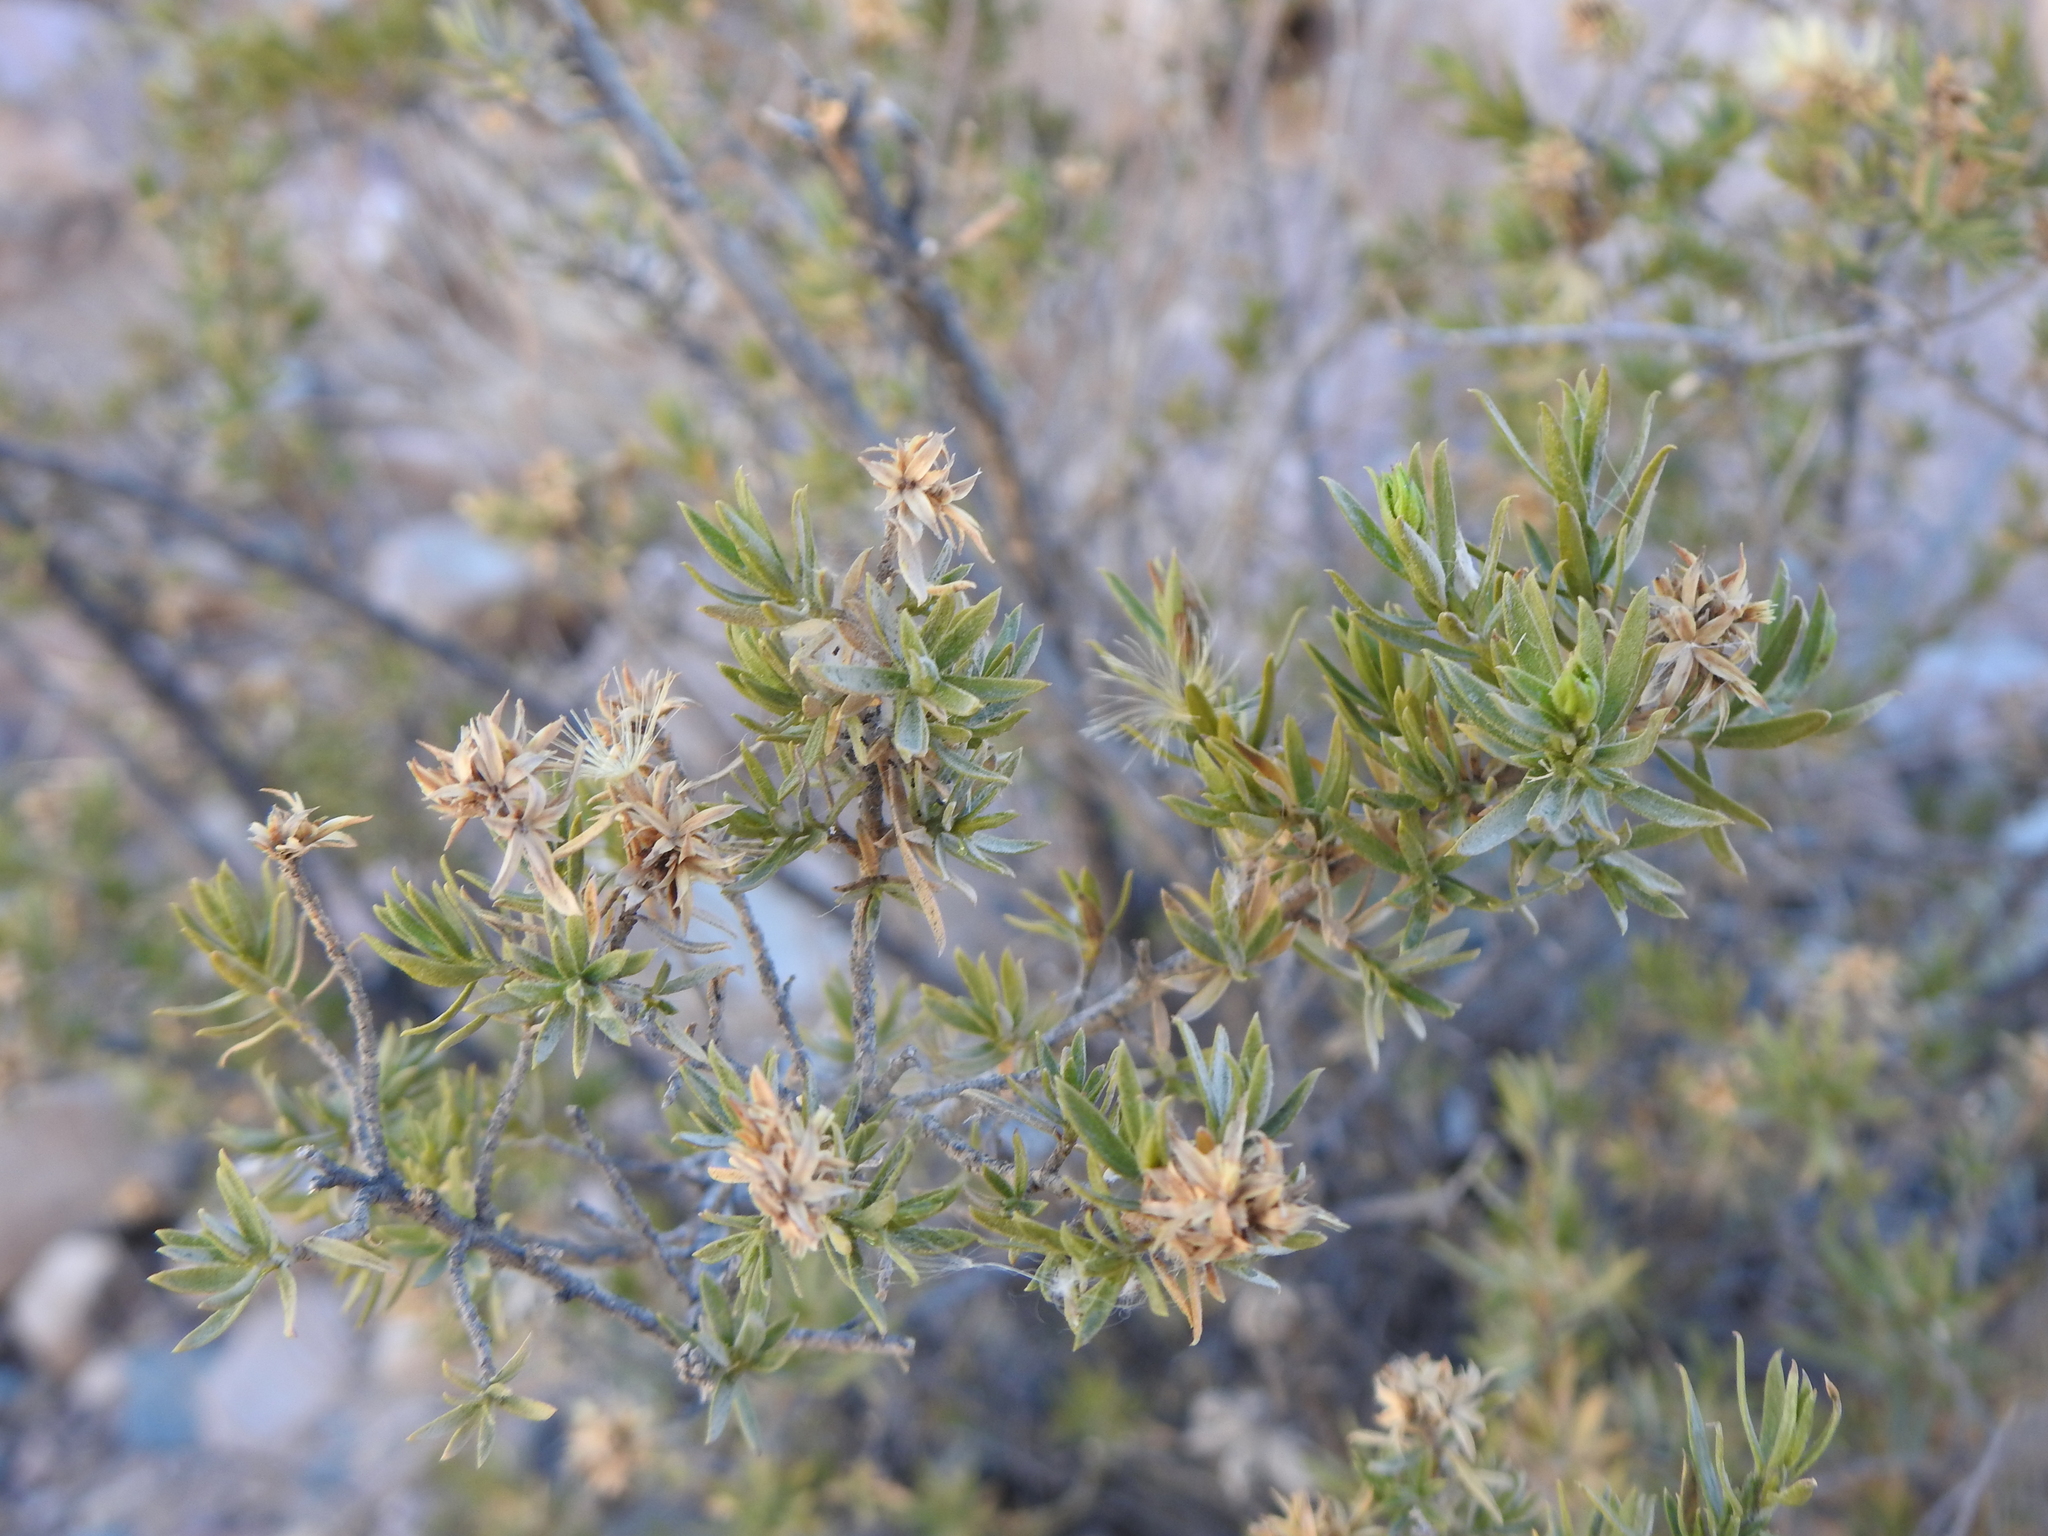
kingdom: Plantae
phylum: Tracheophyta
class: Magnoliopsida
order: Asterales
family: Asteraceae
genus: Gochnatia
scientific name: Gochnatia glutinosa
